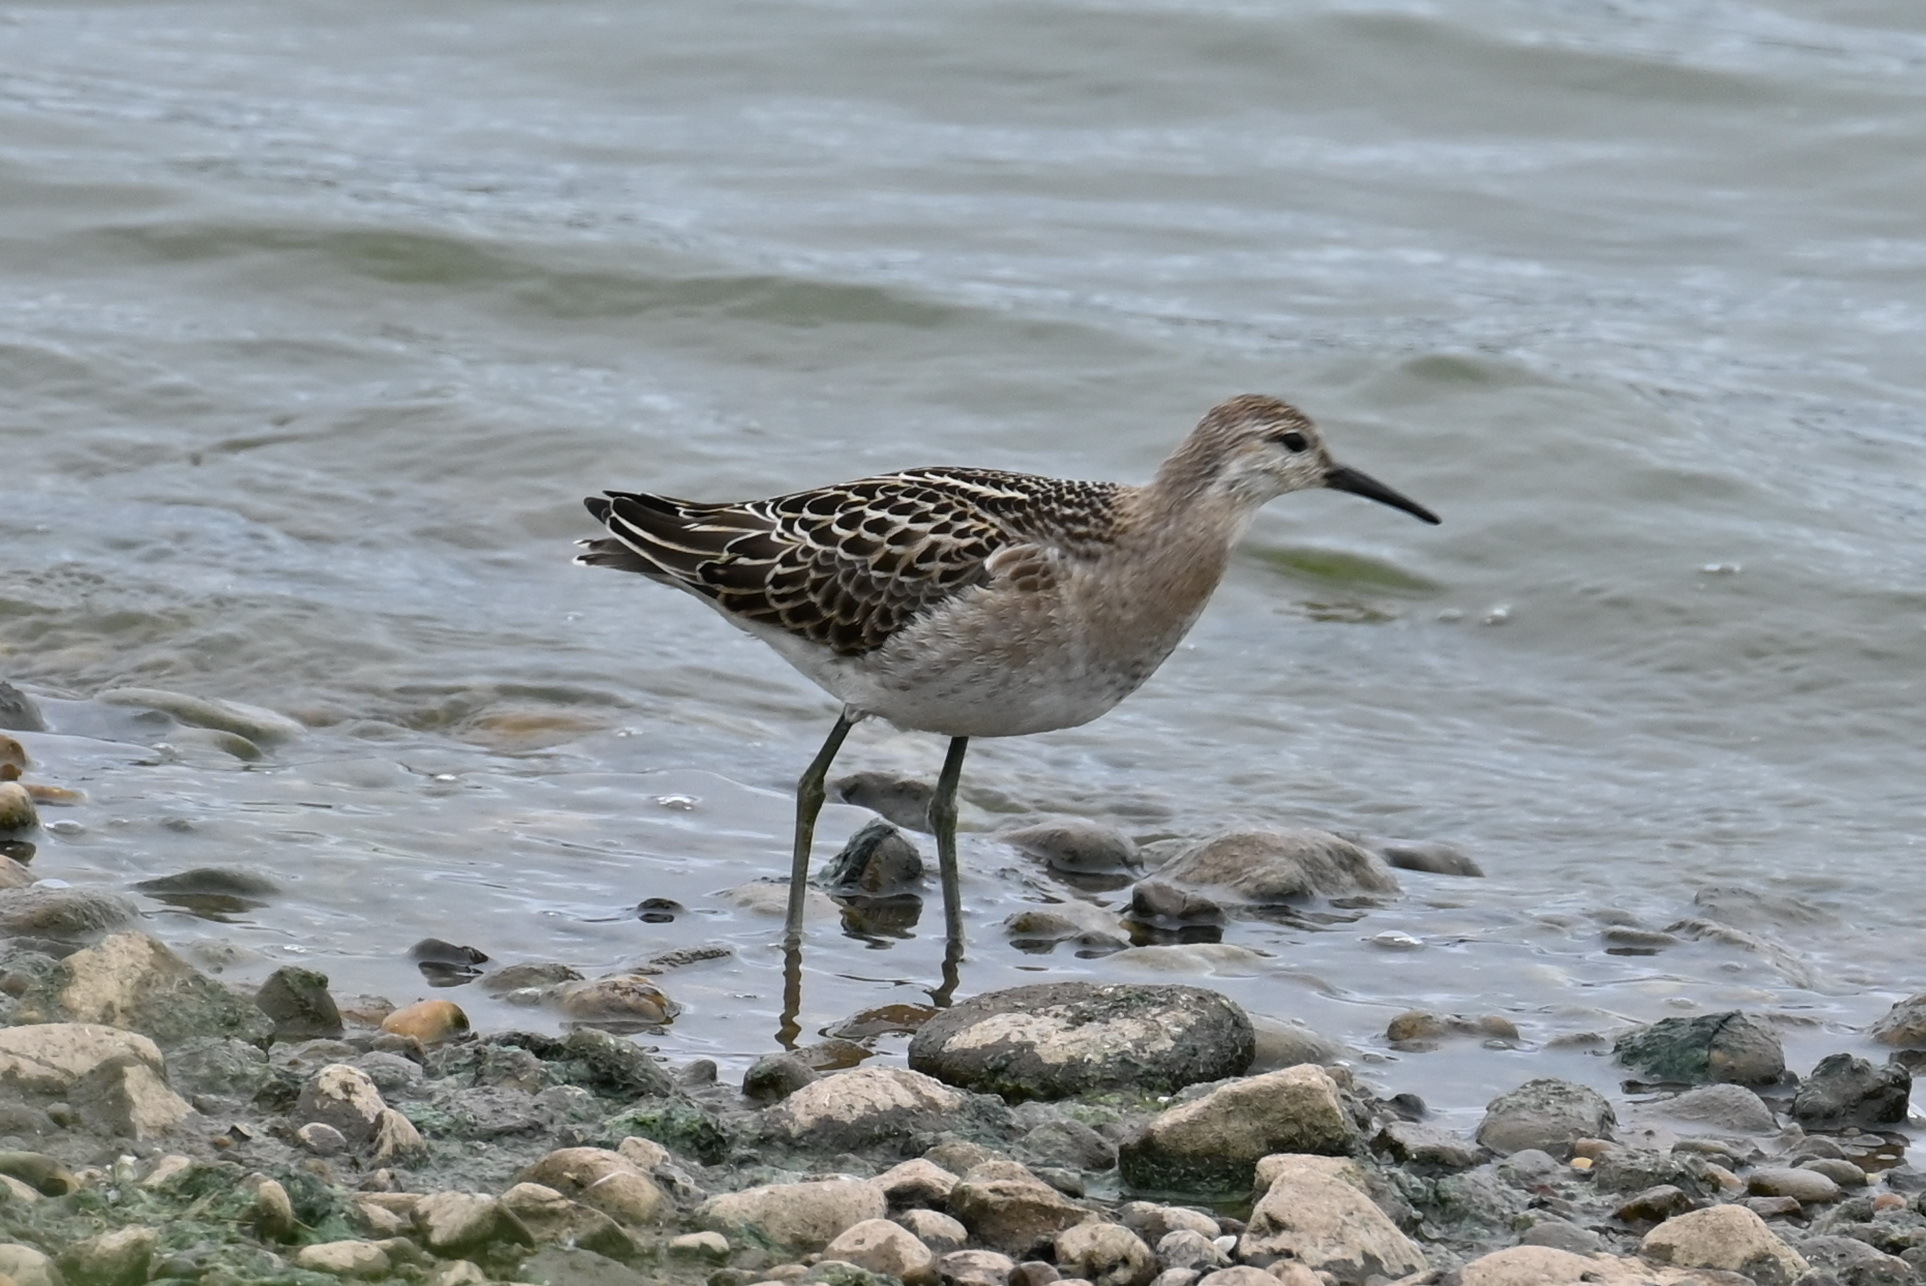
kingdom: Animalia
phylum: Chordata
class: Aves
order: Charadriiformes
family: Scolopacidae
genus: Calidris
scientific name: Calidris pugnax
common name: Ruff
